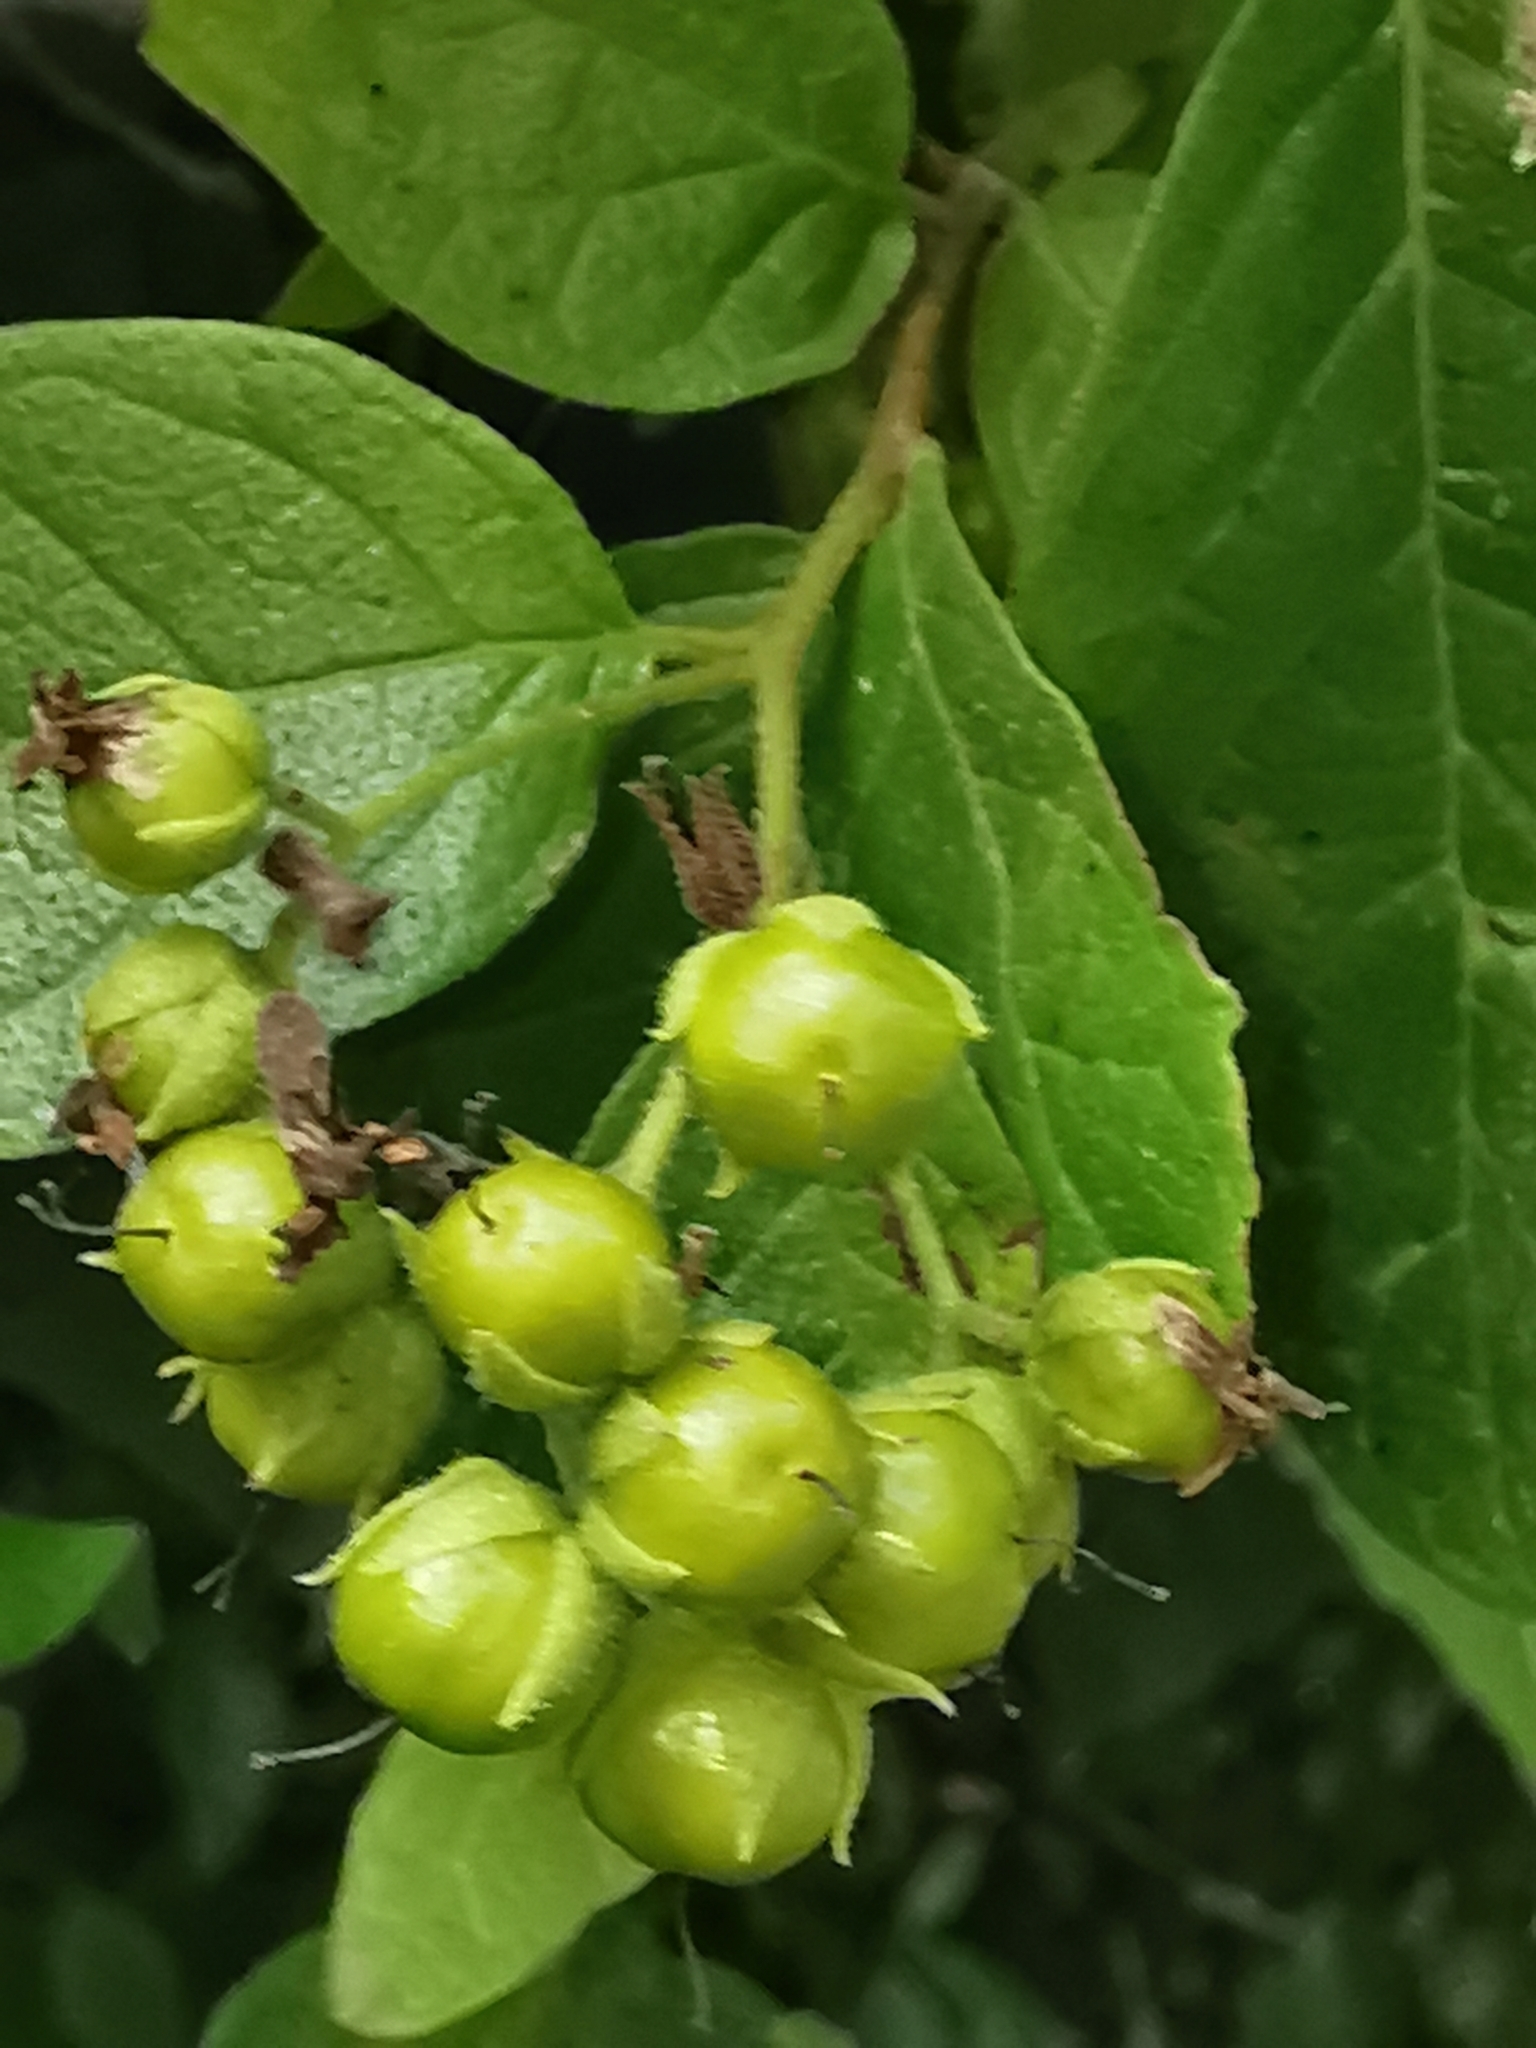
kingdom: Plantae
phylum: Tracheophyta
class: Magnoliopsida
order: Boraginales
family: Ehretiaceae
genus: Ehretia
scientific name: Ehretia anacua
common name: Sugarberry
